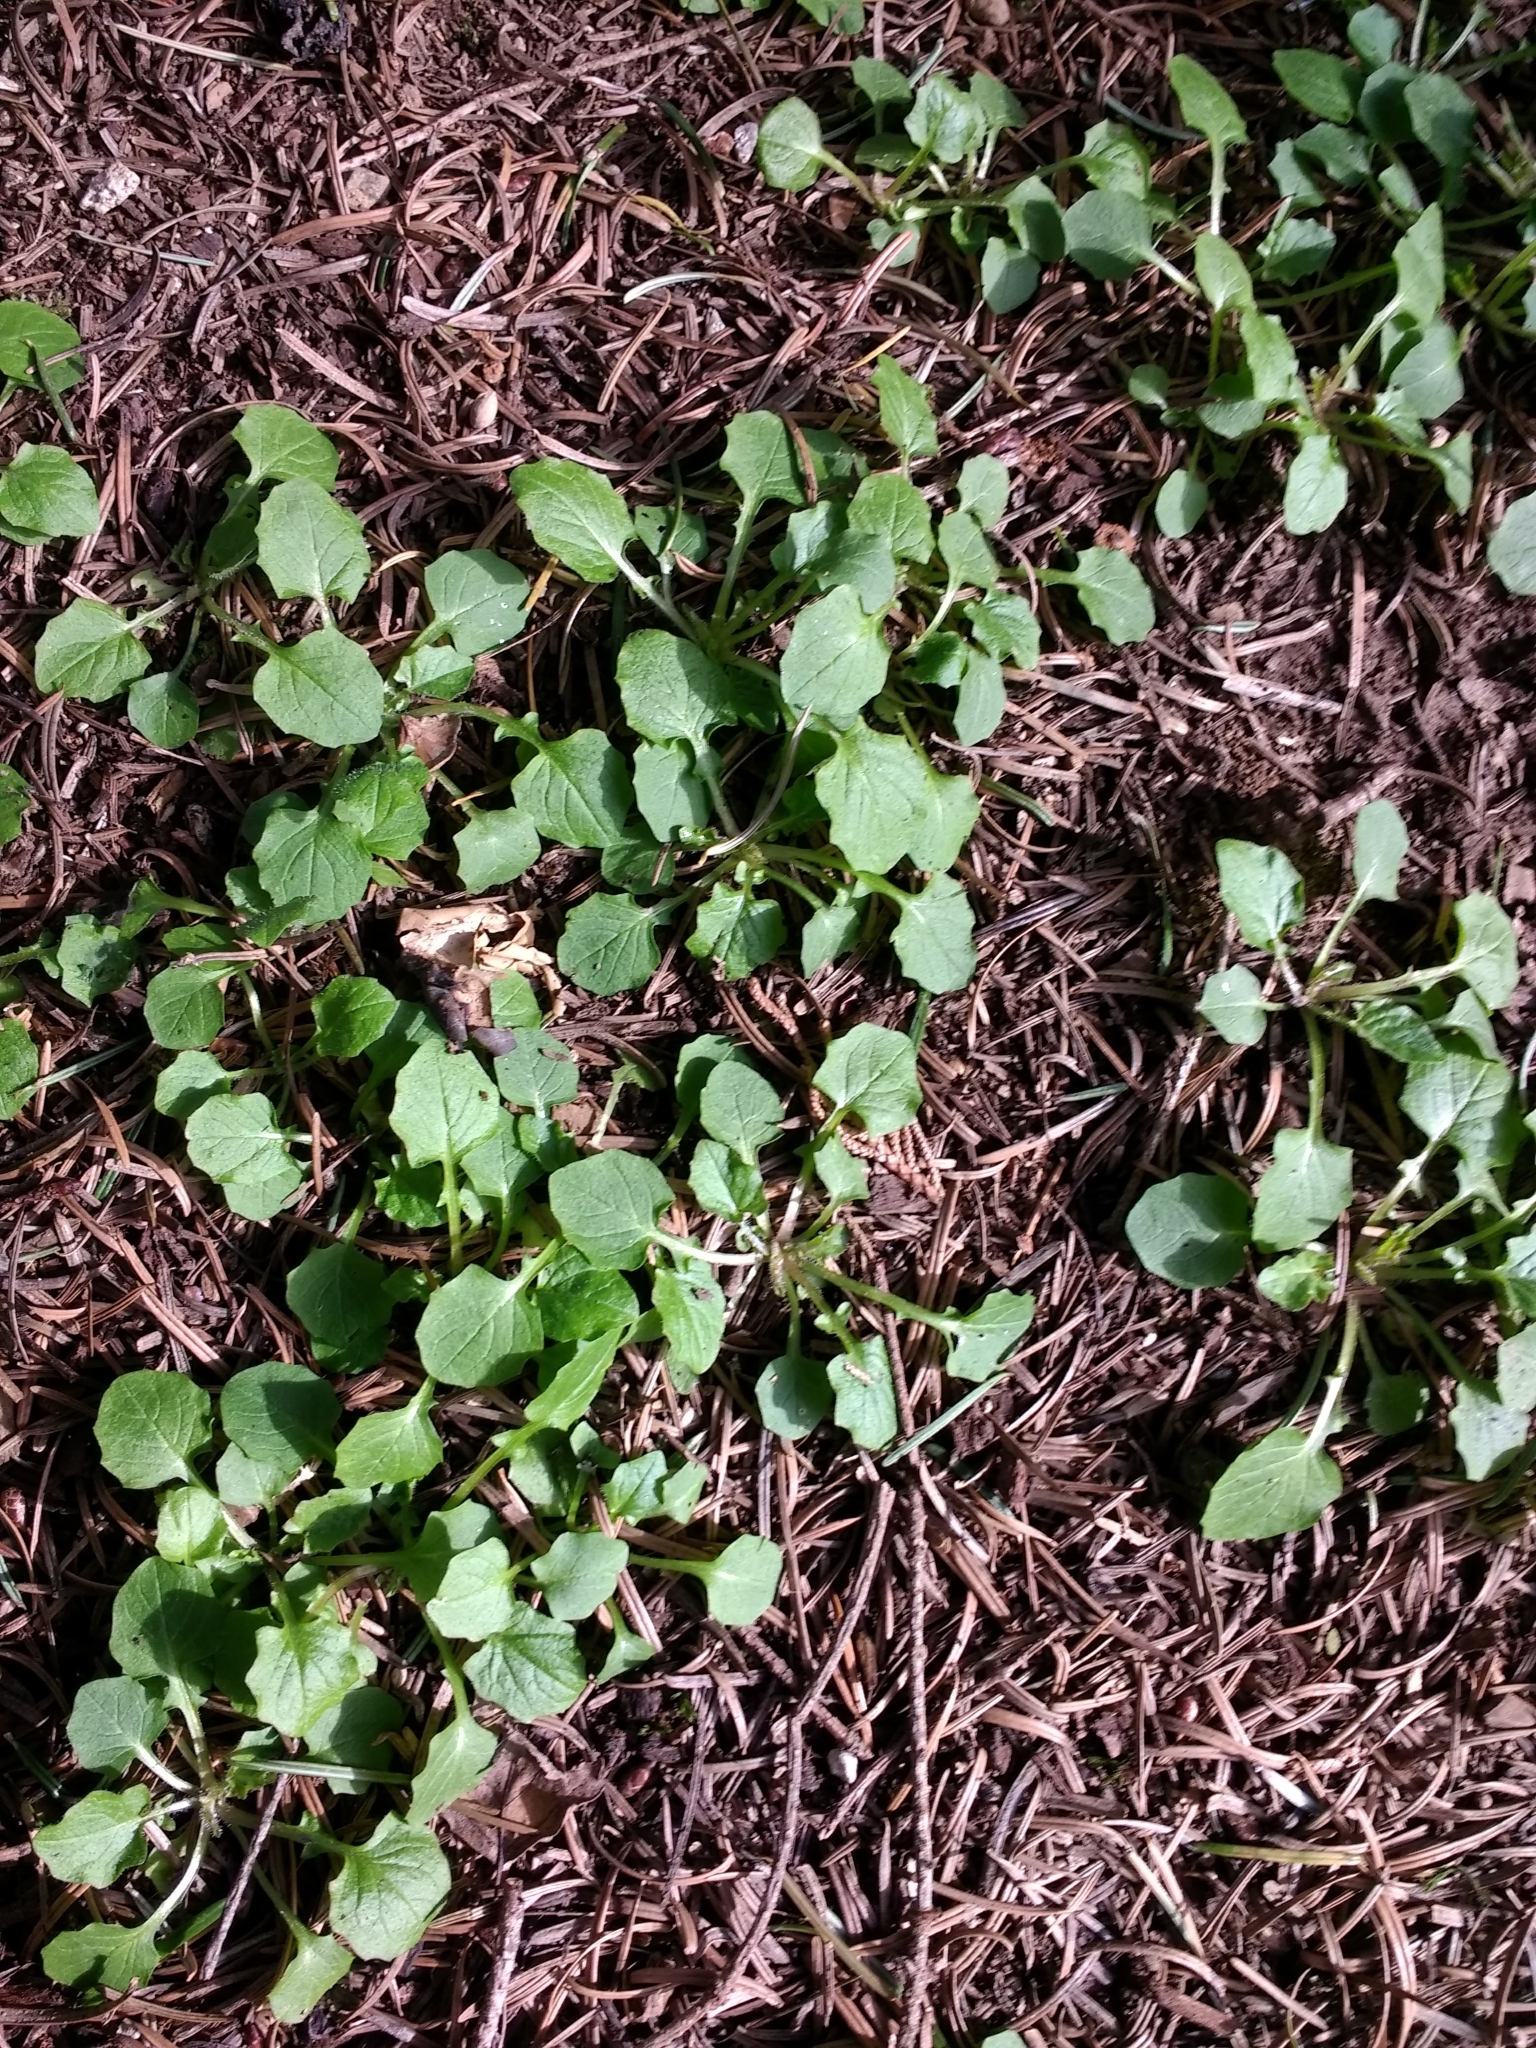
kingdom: Plantae
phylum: Tracheophyta
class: Magnoliopsida
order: Asterales
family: Asteraceae
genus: Lapsana
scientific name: Lapsana communis
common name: Nipplewort
